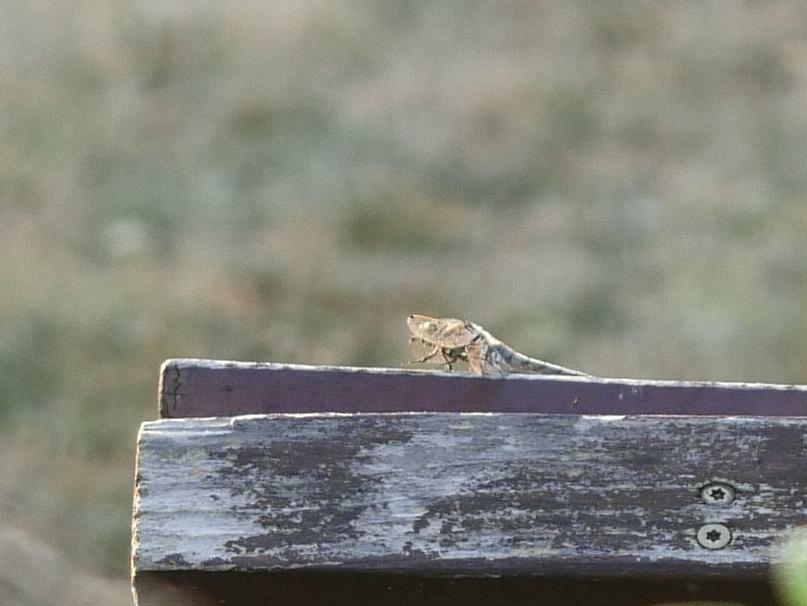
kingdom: Animalia
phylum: Arthropoda
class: Insecta
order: Odonata
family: Libellulidae
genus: Orthetrum
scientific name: Orthetrum cancellatum
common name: Black-tailed skimmer
